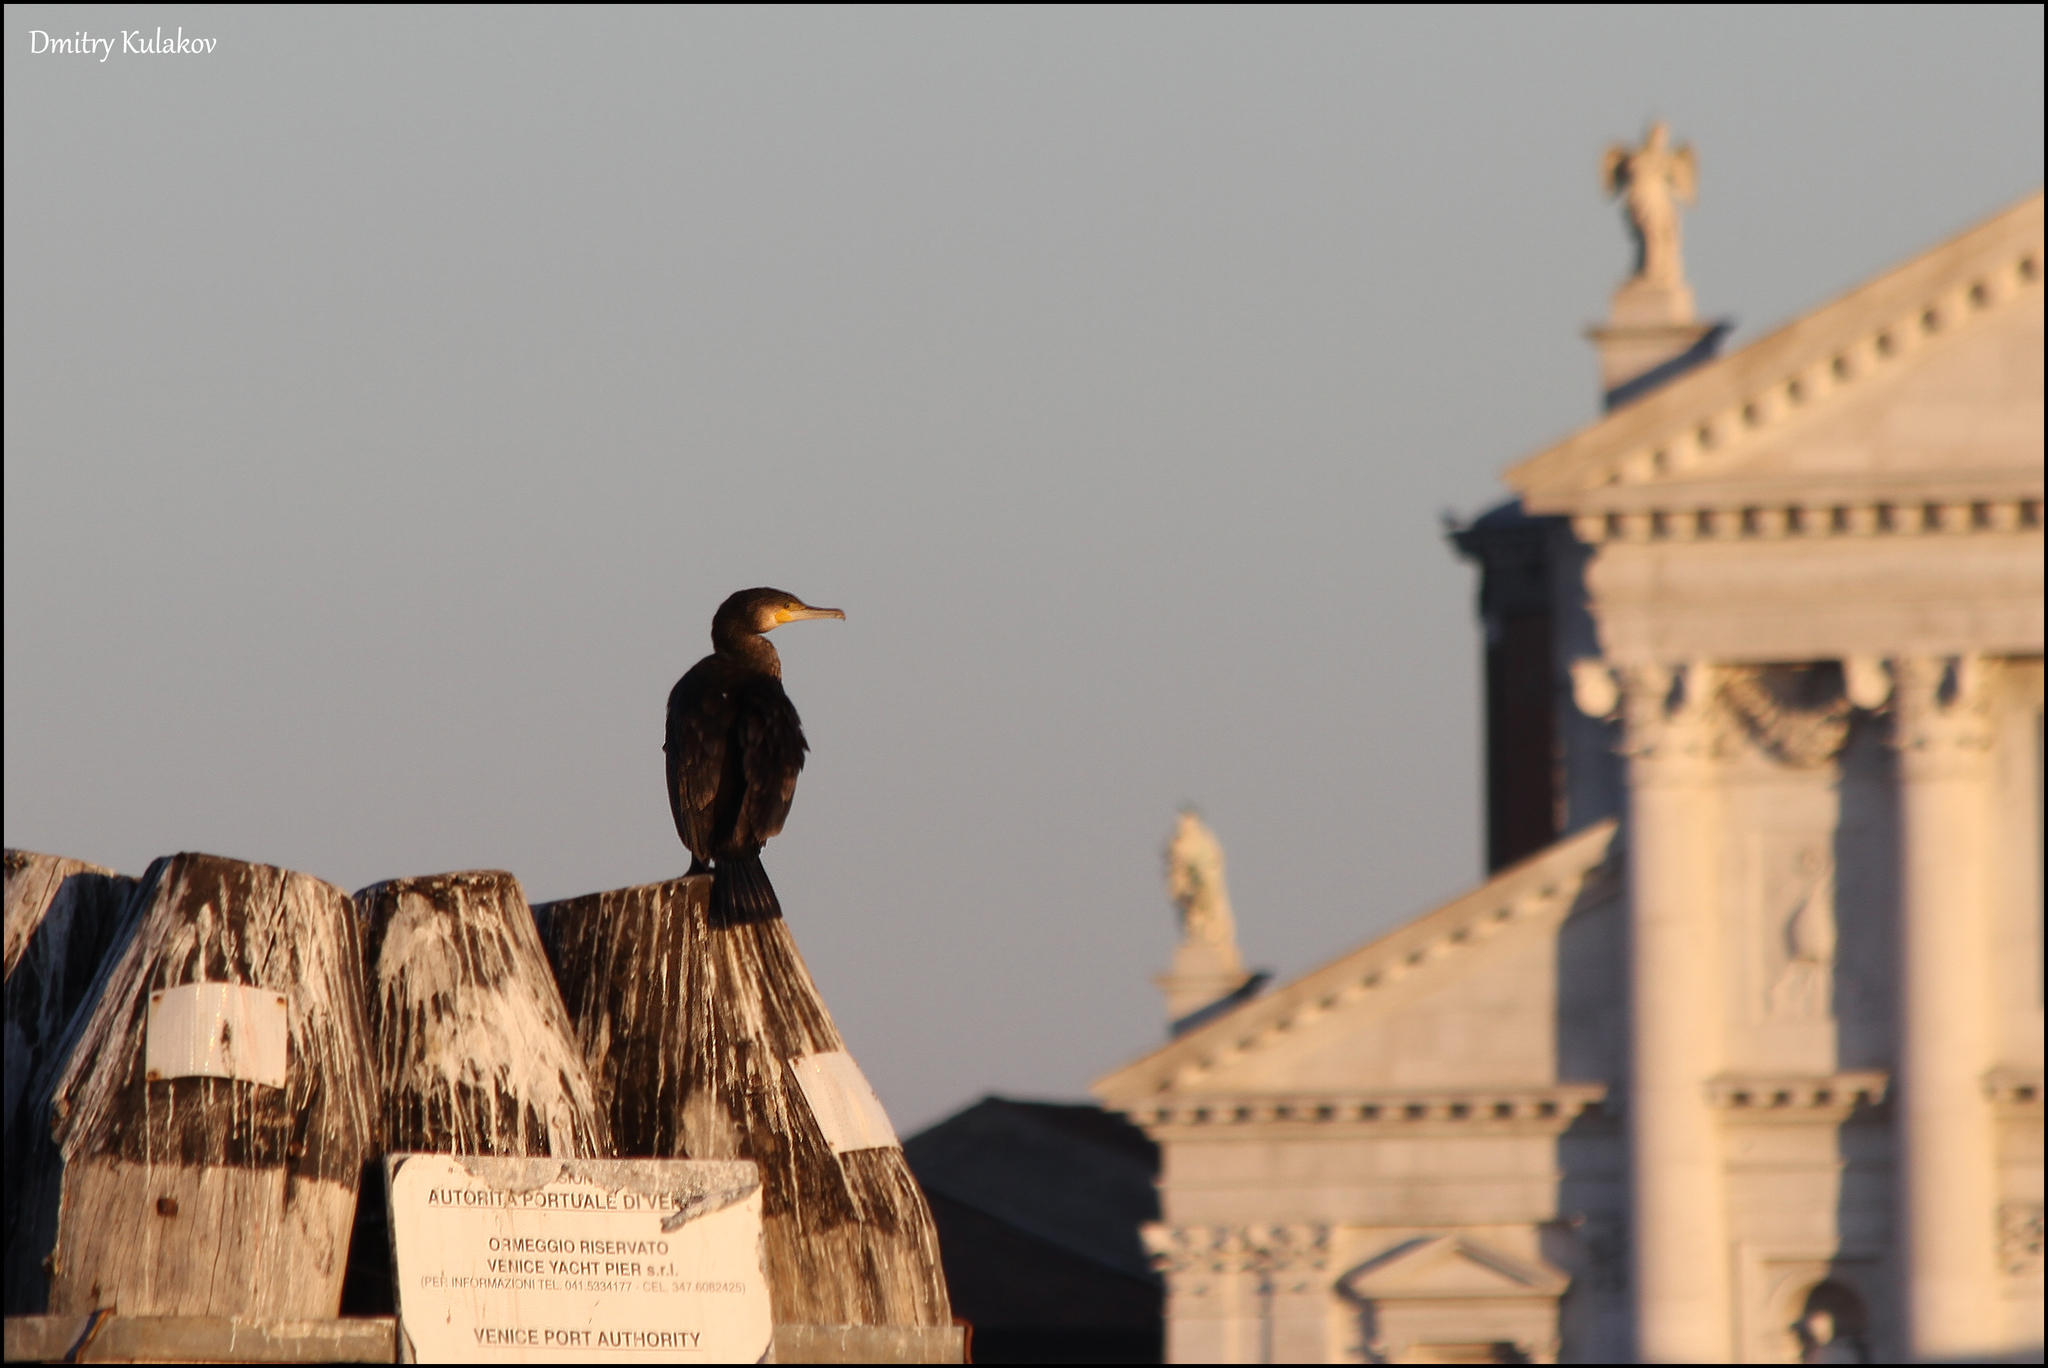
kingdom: Animalia
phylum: Chordata
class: Aves
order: Suliformes
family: Phalacrocoracidae
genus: Phalacrocorax
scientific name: Phalacrocorax carbo
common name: Great cormorant
